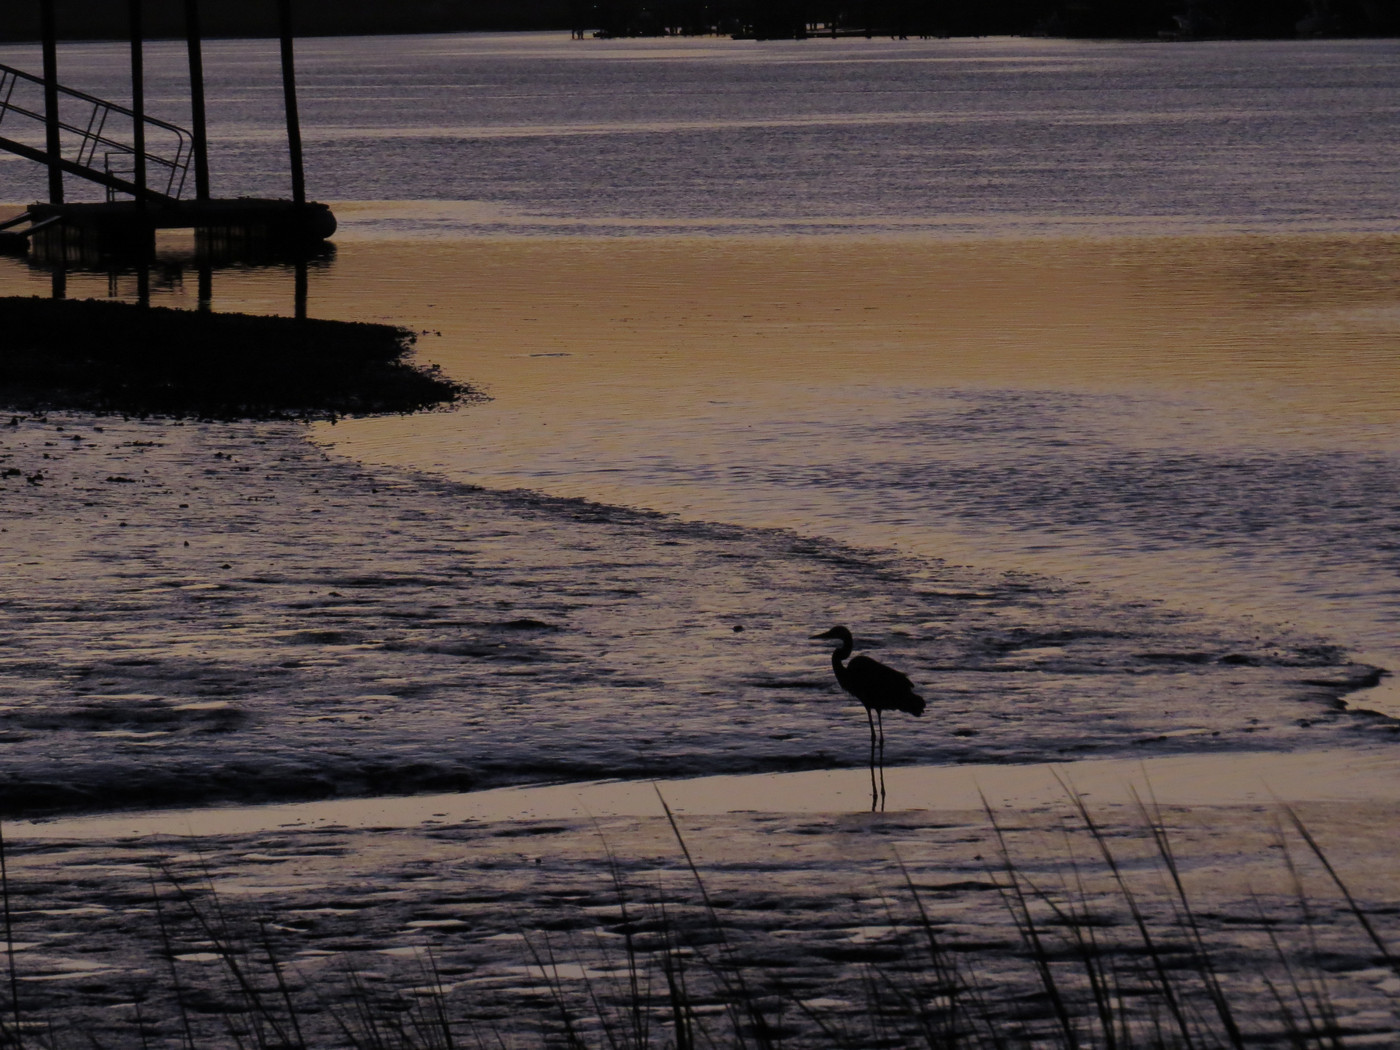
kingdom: Animalia
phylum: Chordata
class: Aves
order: Pelecaniformes
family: Ardeidae
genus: Ardea
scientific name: Ardea herodias
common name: Great blue heron
